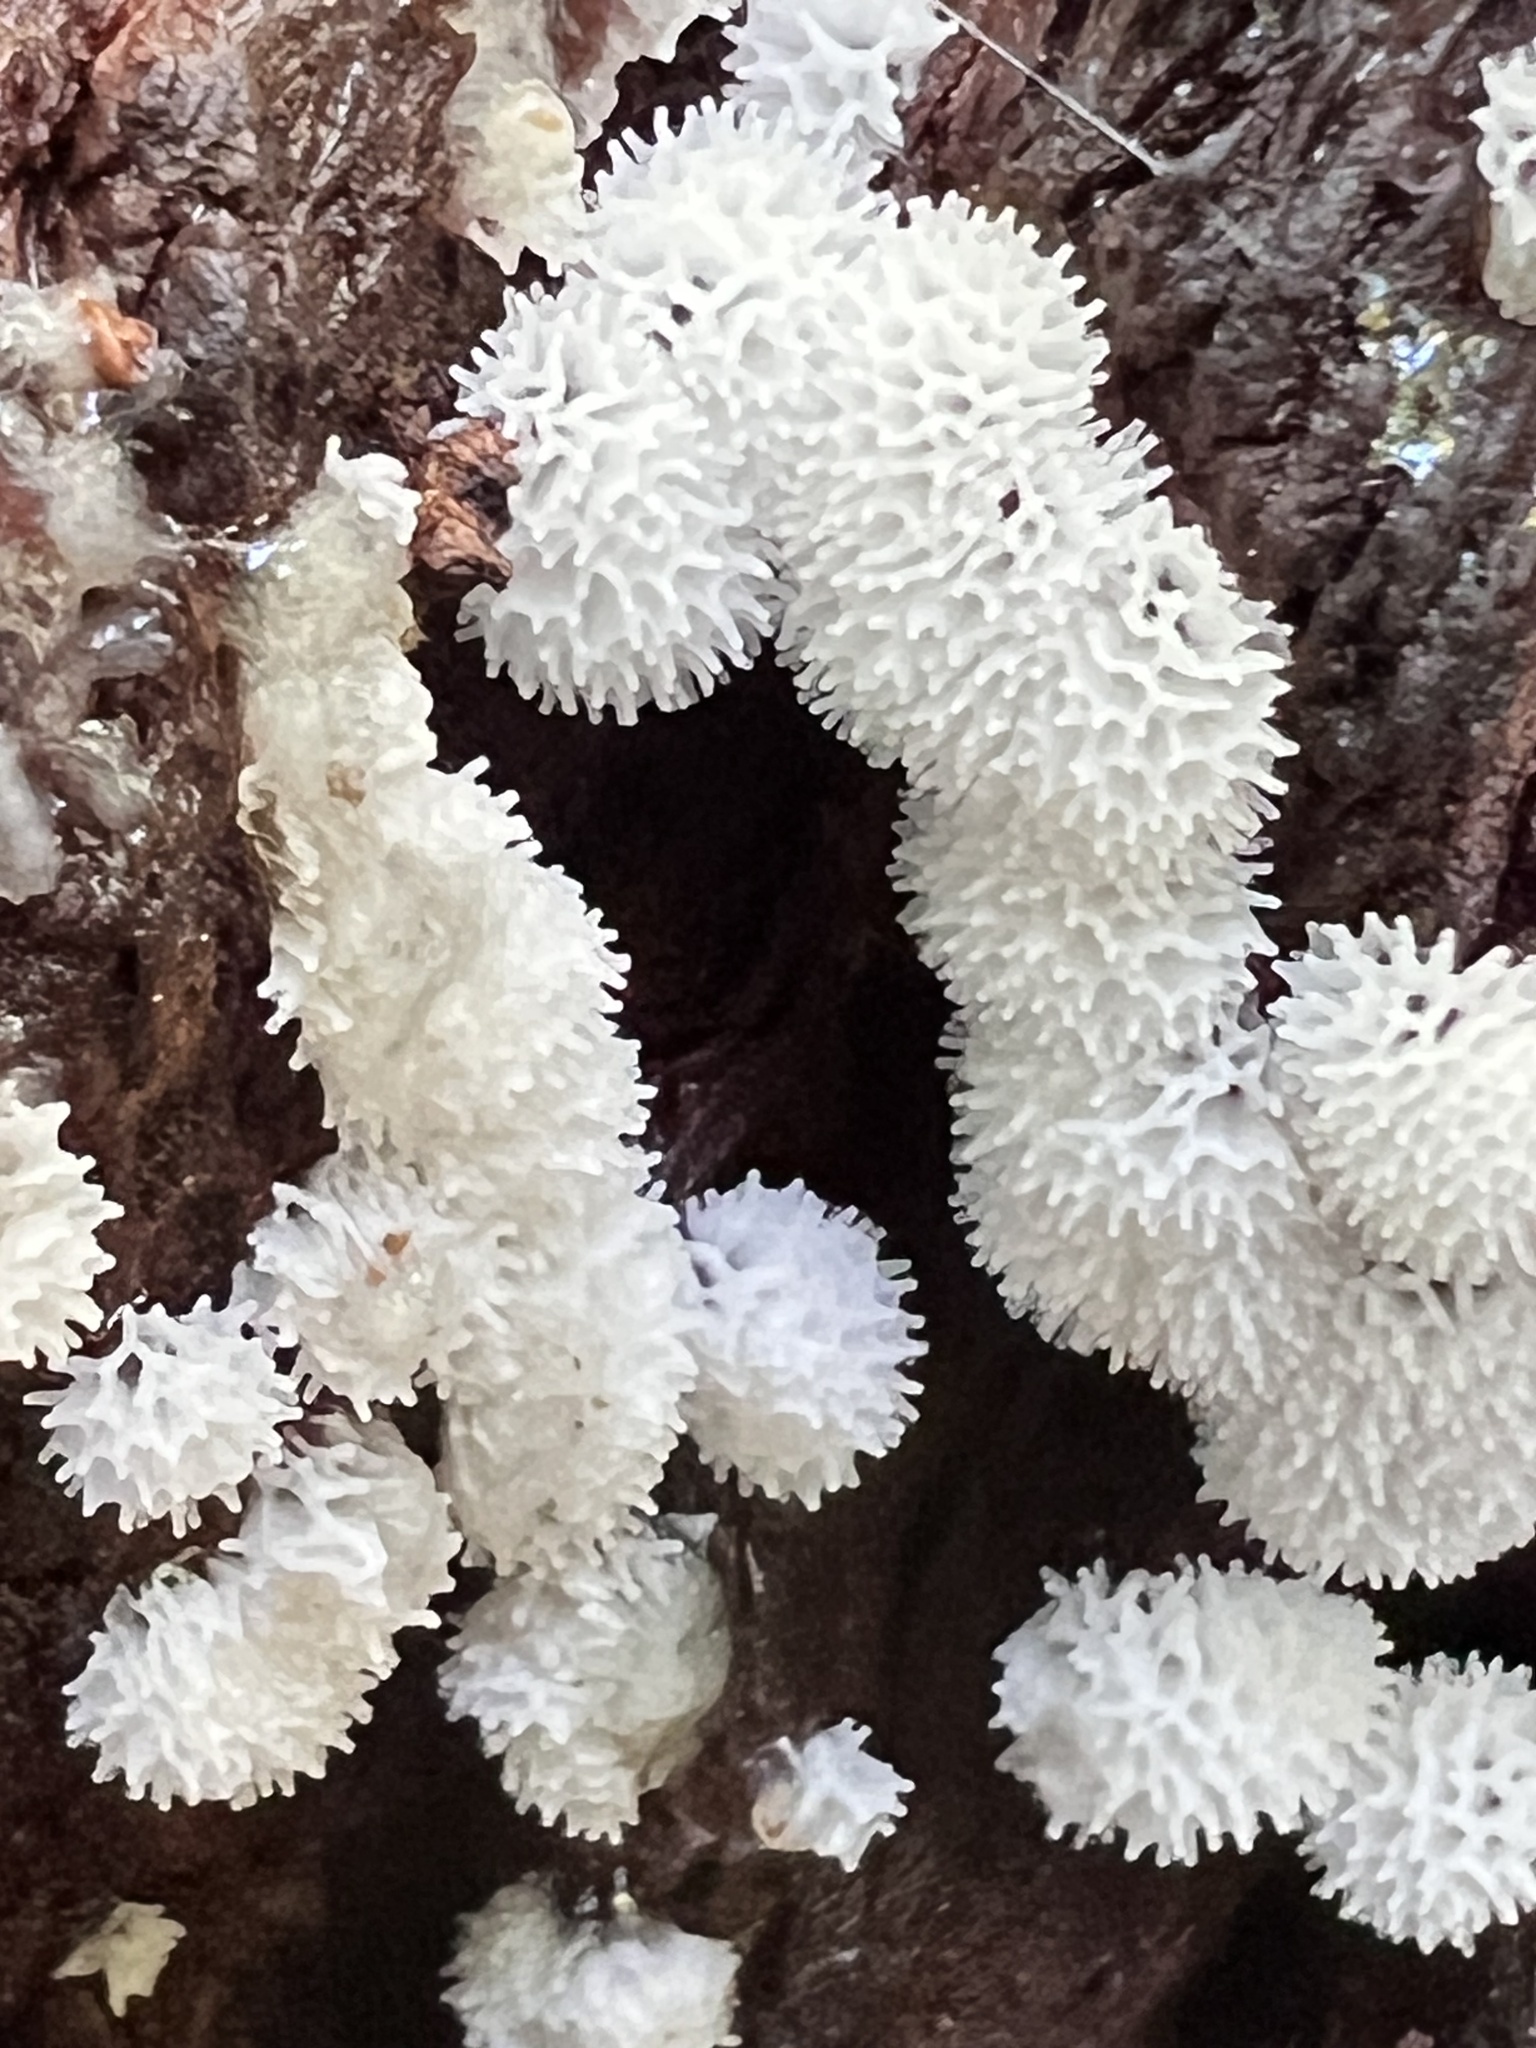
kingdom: Protozoa
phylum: Mycetozoa
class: Protosteliomycetes
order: Ceratiomyxales
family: Ceratiomyxaceae
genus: Ceratiomyxa
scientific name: Ceratiomyxa fruticulosa
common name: Honeycomb coral slime mold
